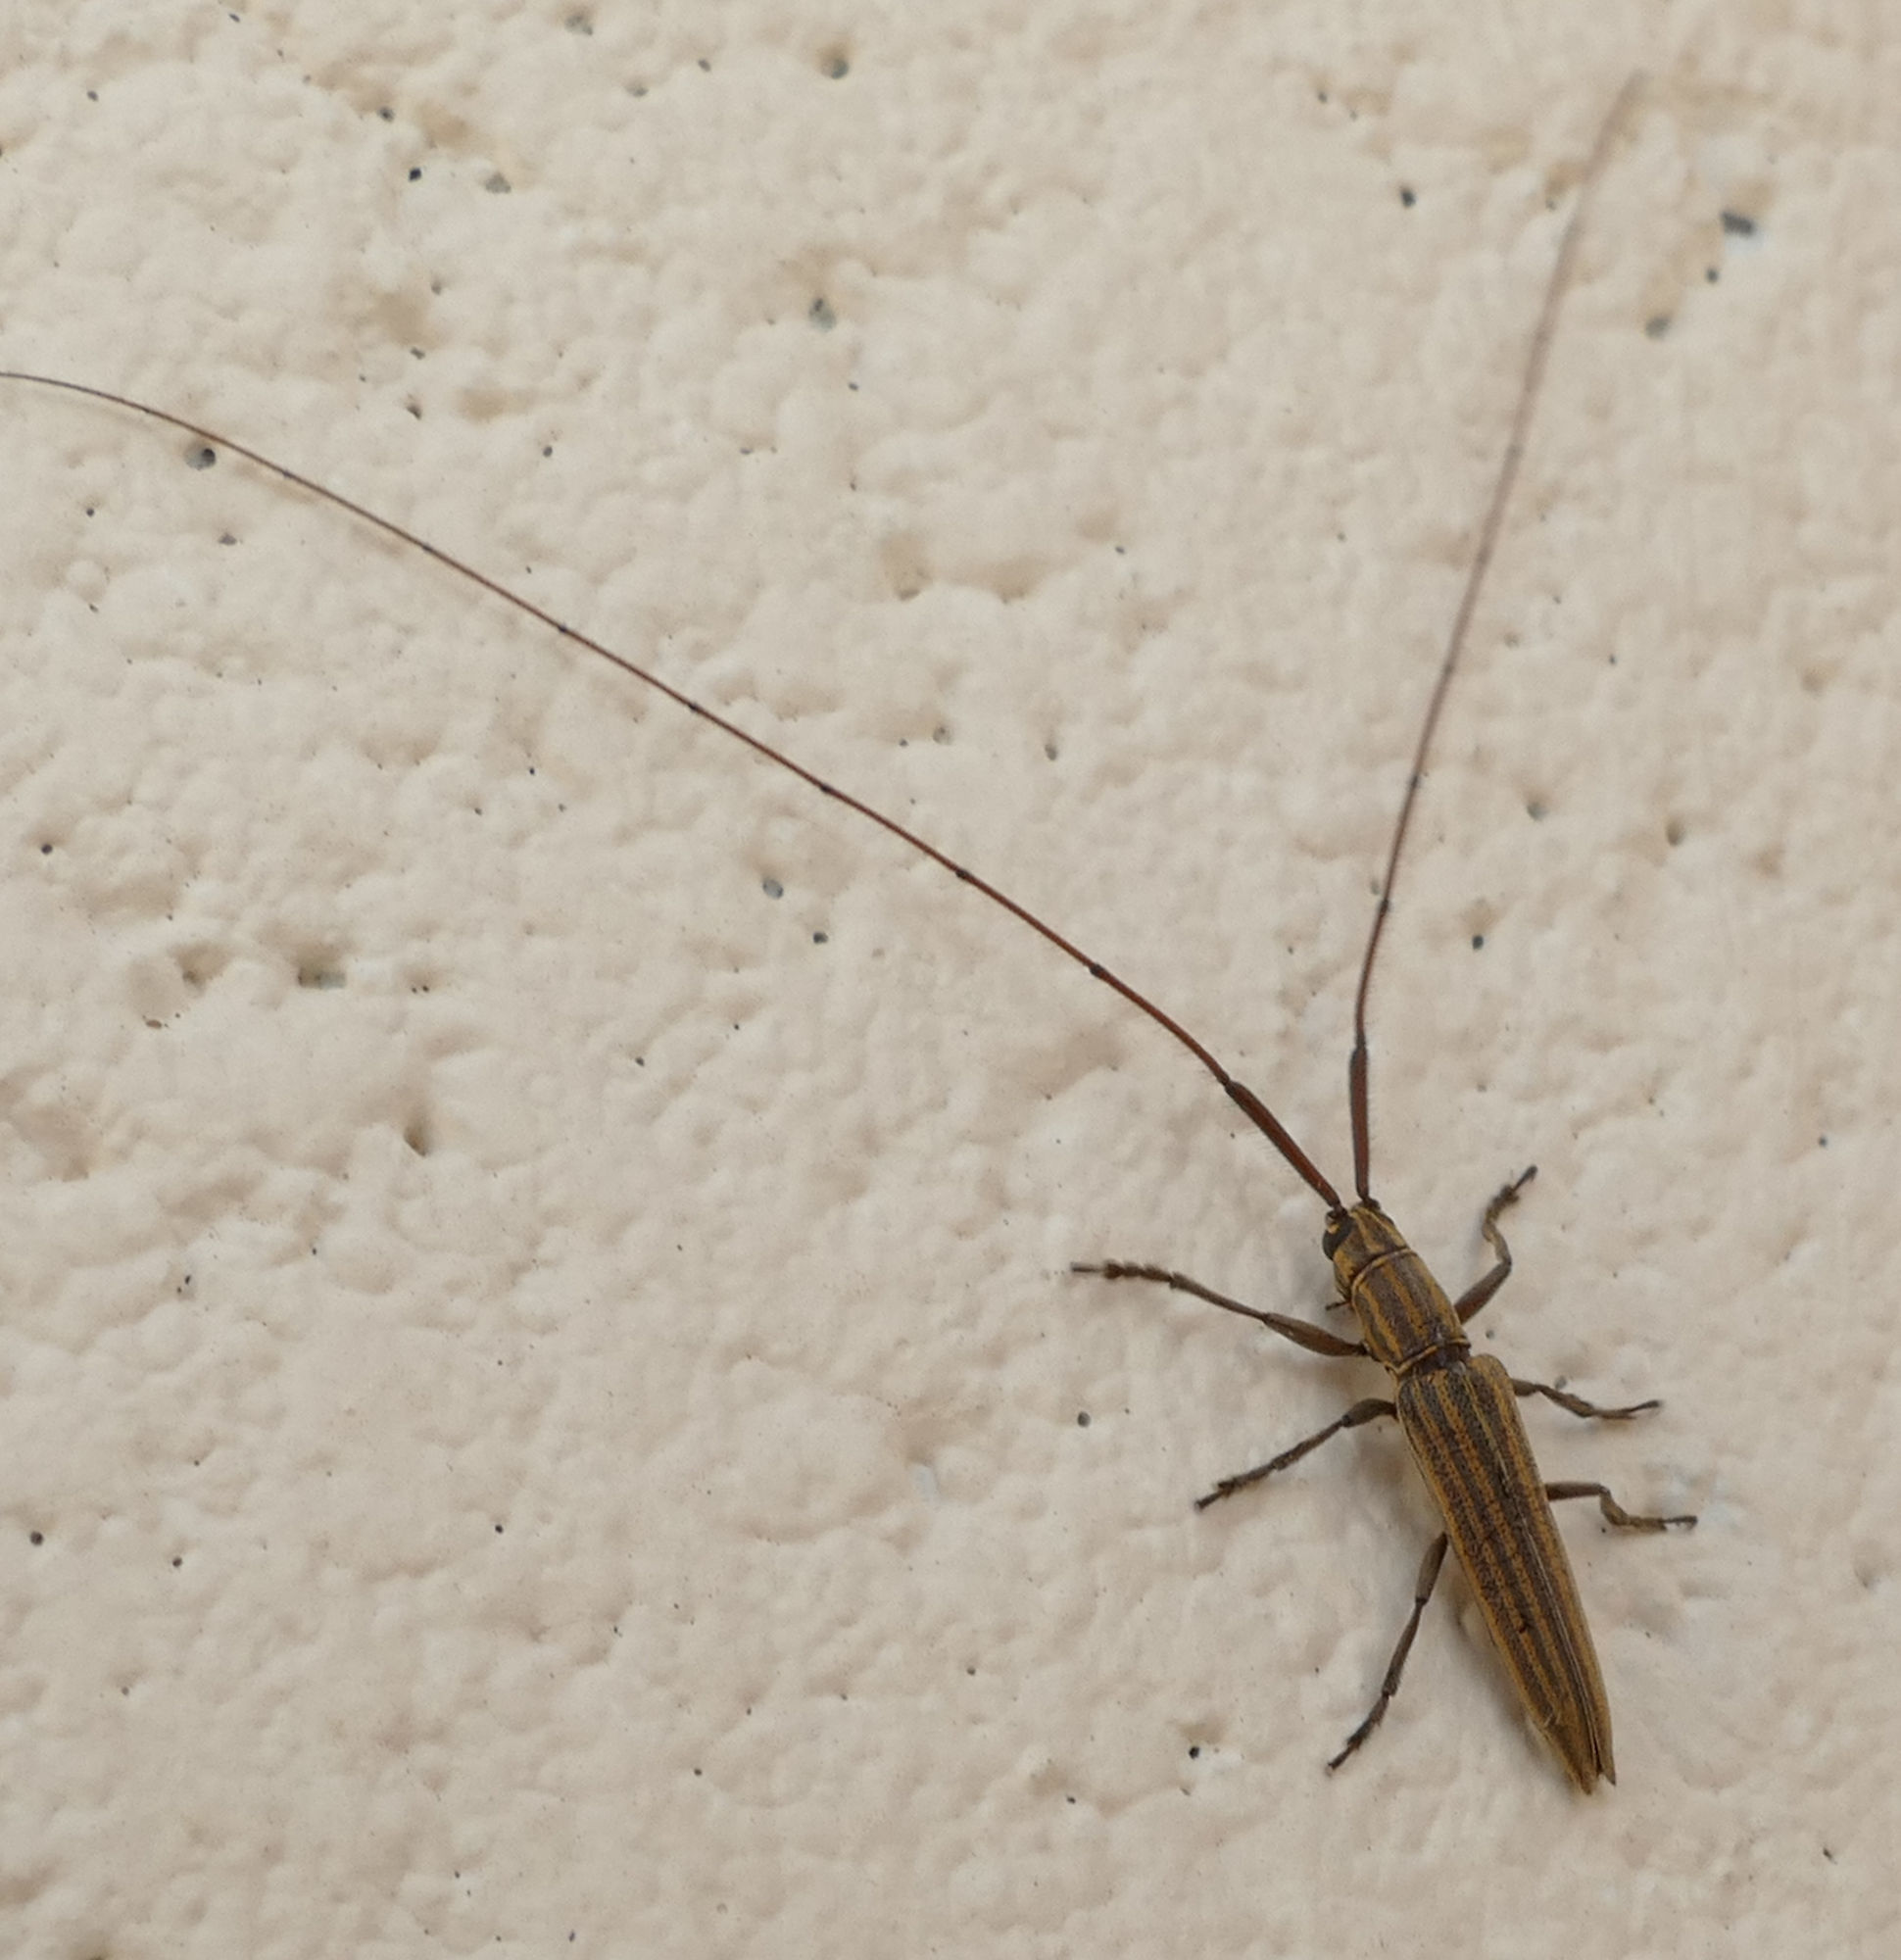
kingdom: Animalia
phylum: Arthropoda
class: Insecta
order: Coleoptera
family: Cerambycidae
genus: Hippopsis
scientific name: Hippopsis
